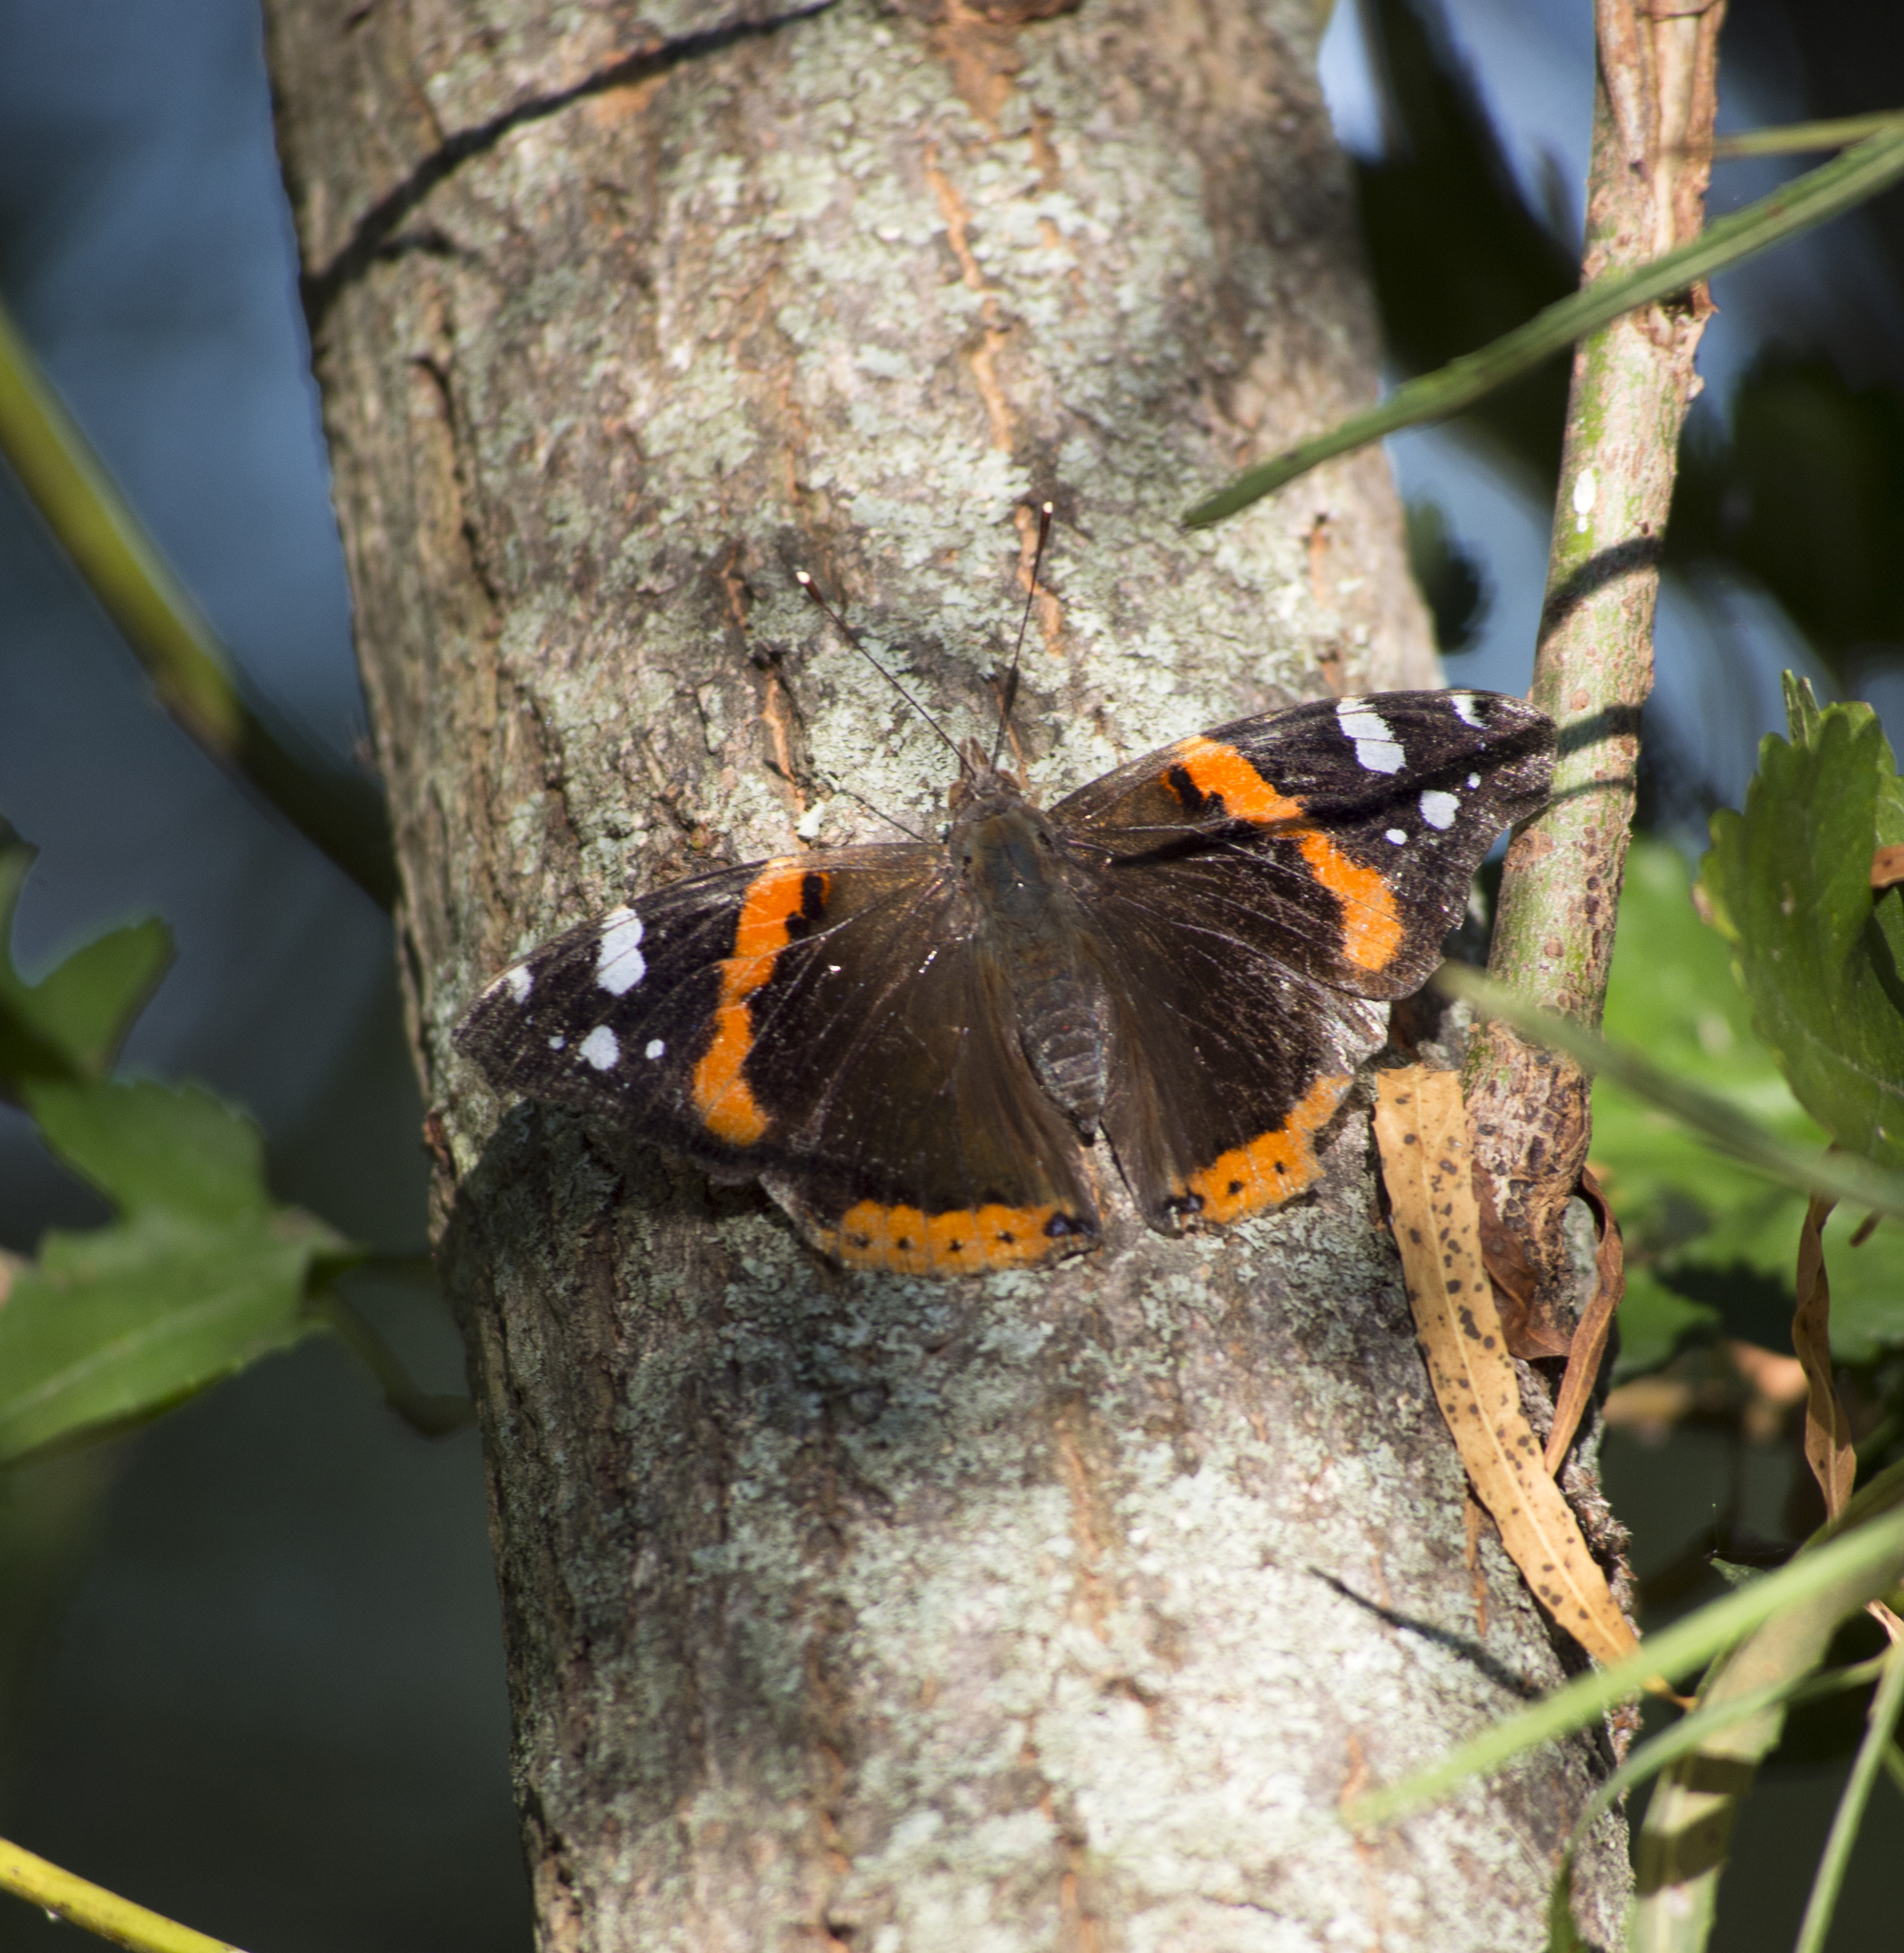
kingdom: Animalia
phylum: Arthropoda
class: Insecta
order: Lepidoptera
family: Nymphalidae
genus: Vanessa
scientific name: Vanessa atalanta
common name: Red admiral
